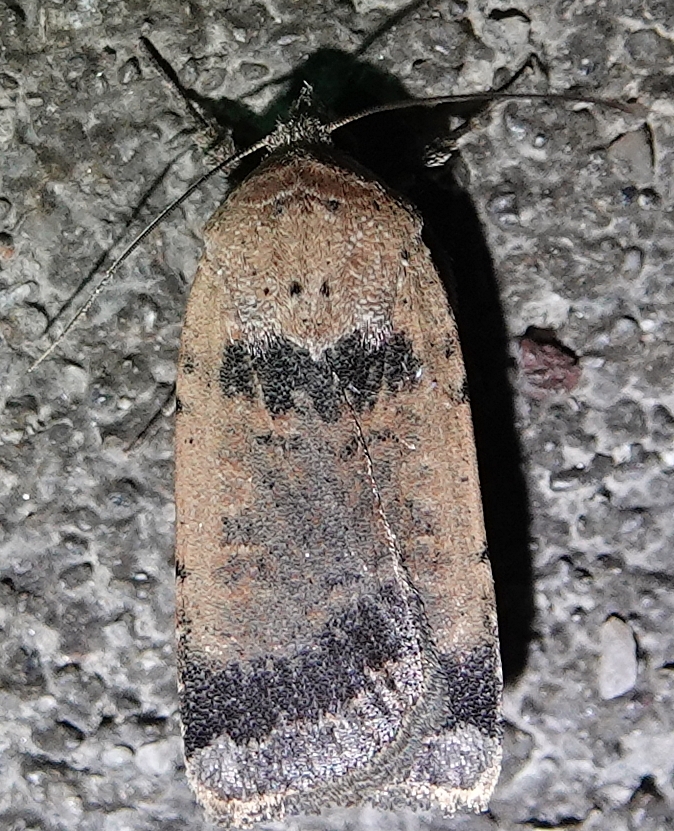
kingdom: Animalia
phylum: Arthropoda
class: Insecta
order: Lepidoptera
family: Noctuidae
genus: Abagrotis
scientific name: Abagrotis brunneipennis
